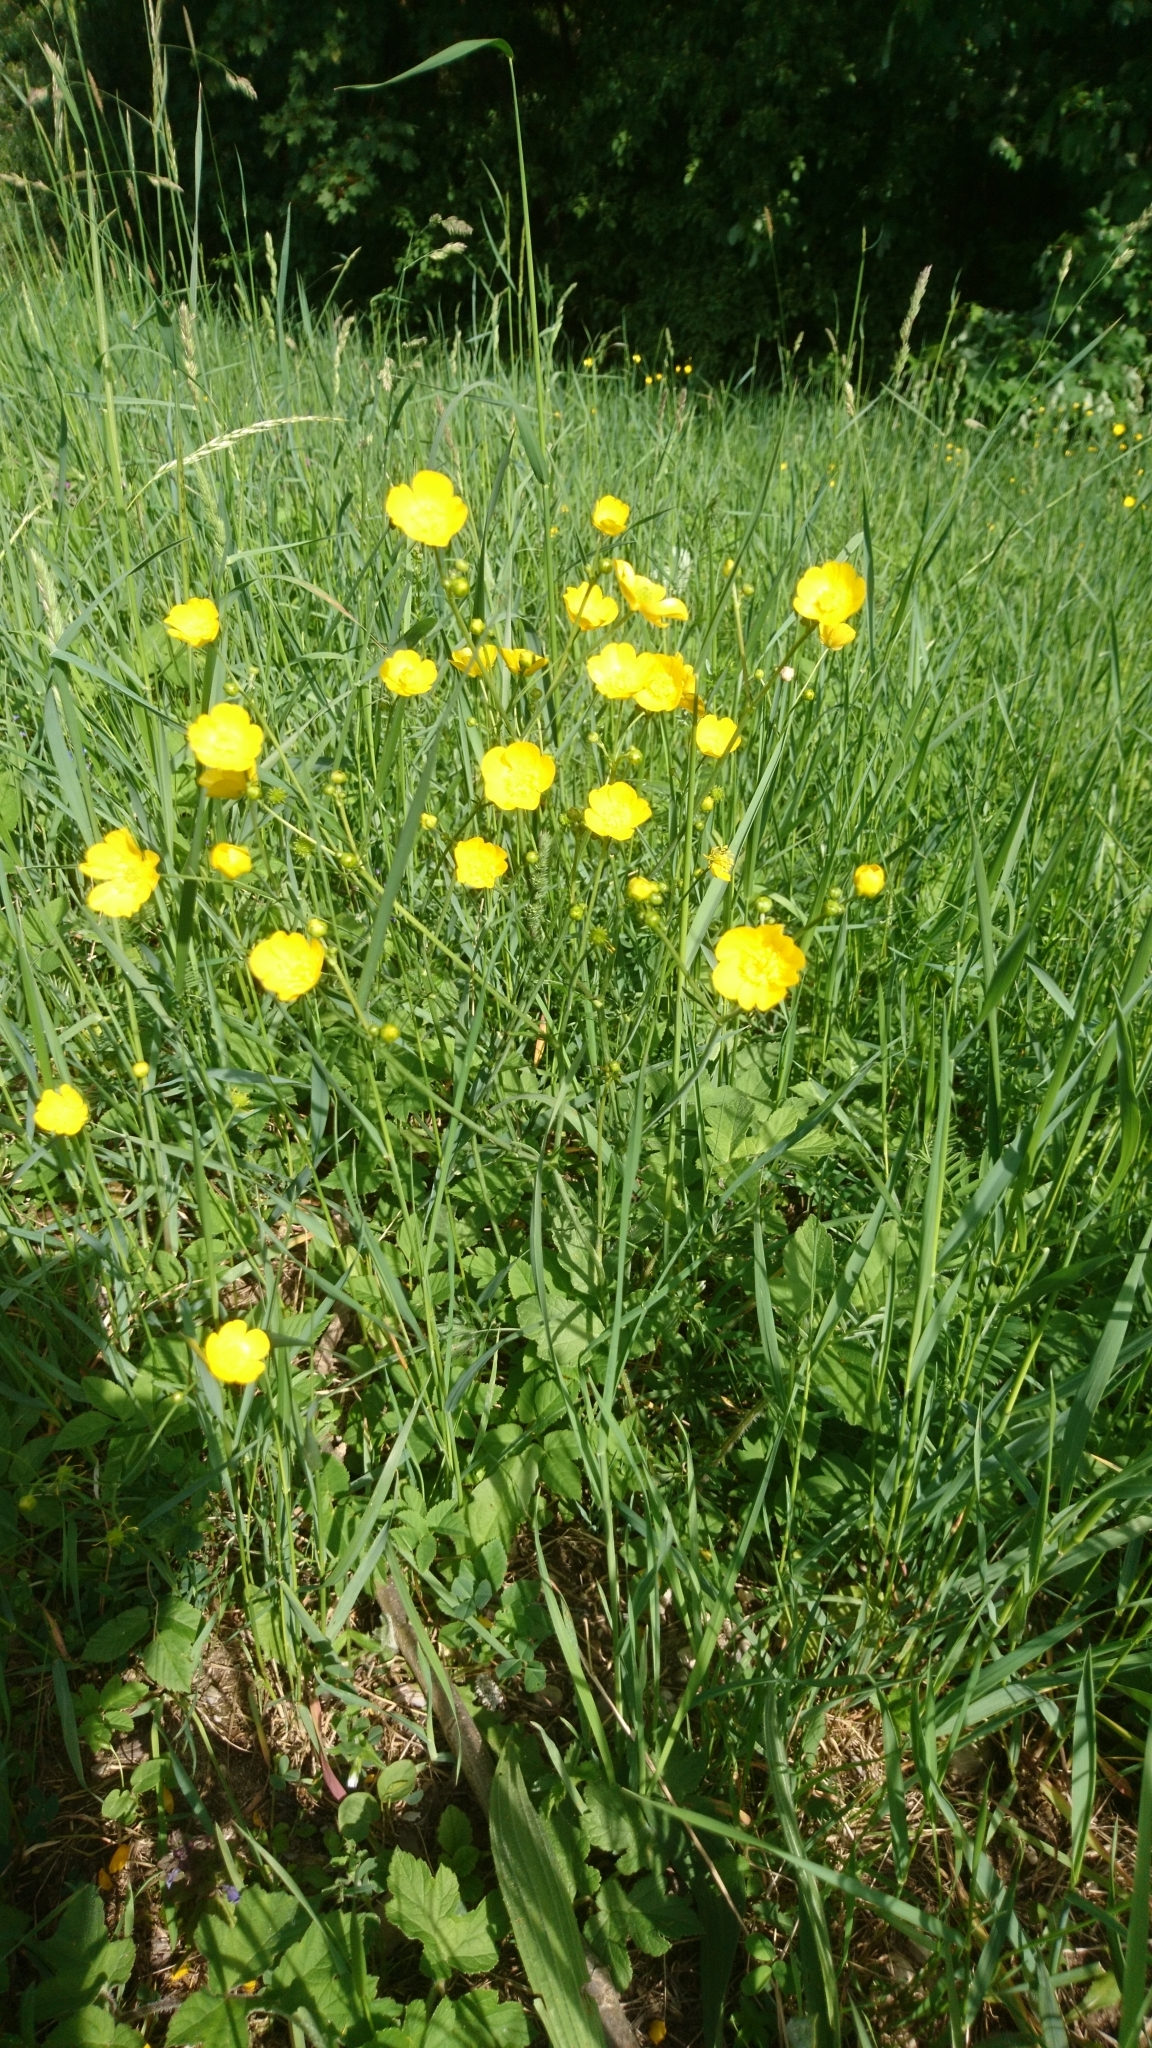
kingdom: Plantae
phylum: Tracheophyta
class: Magnoliopsida
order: Ranunculales
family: Ranunculaceae
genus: Ranunculus
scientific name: Ranunculus acris
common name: Meadow buttercup
